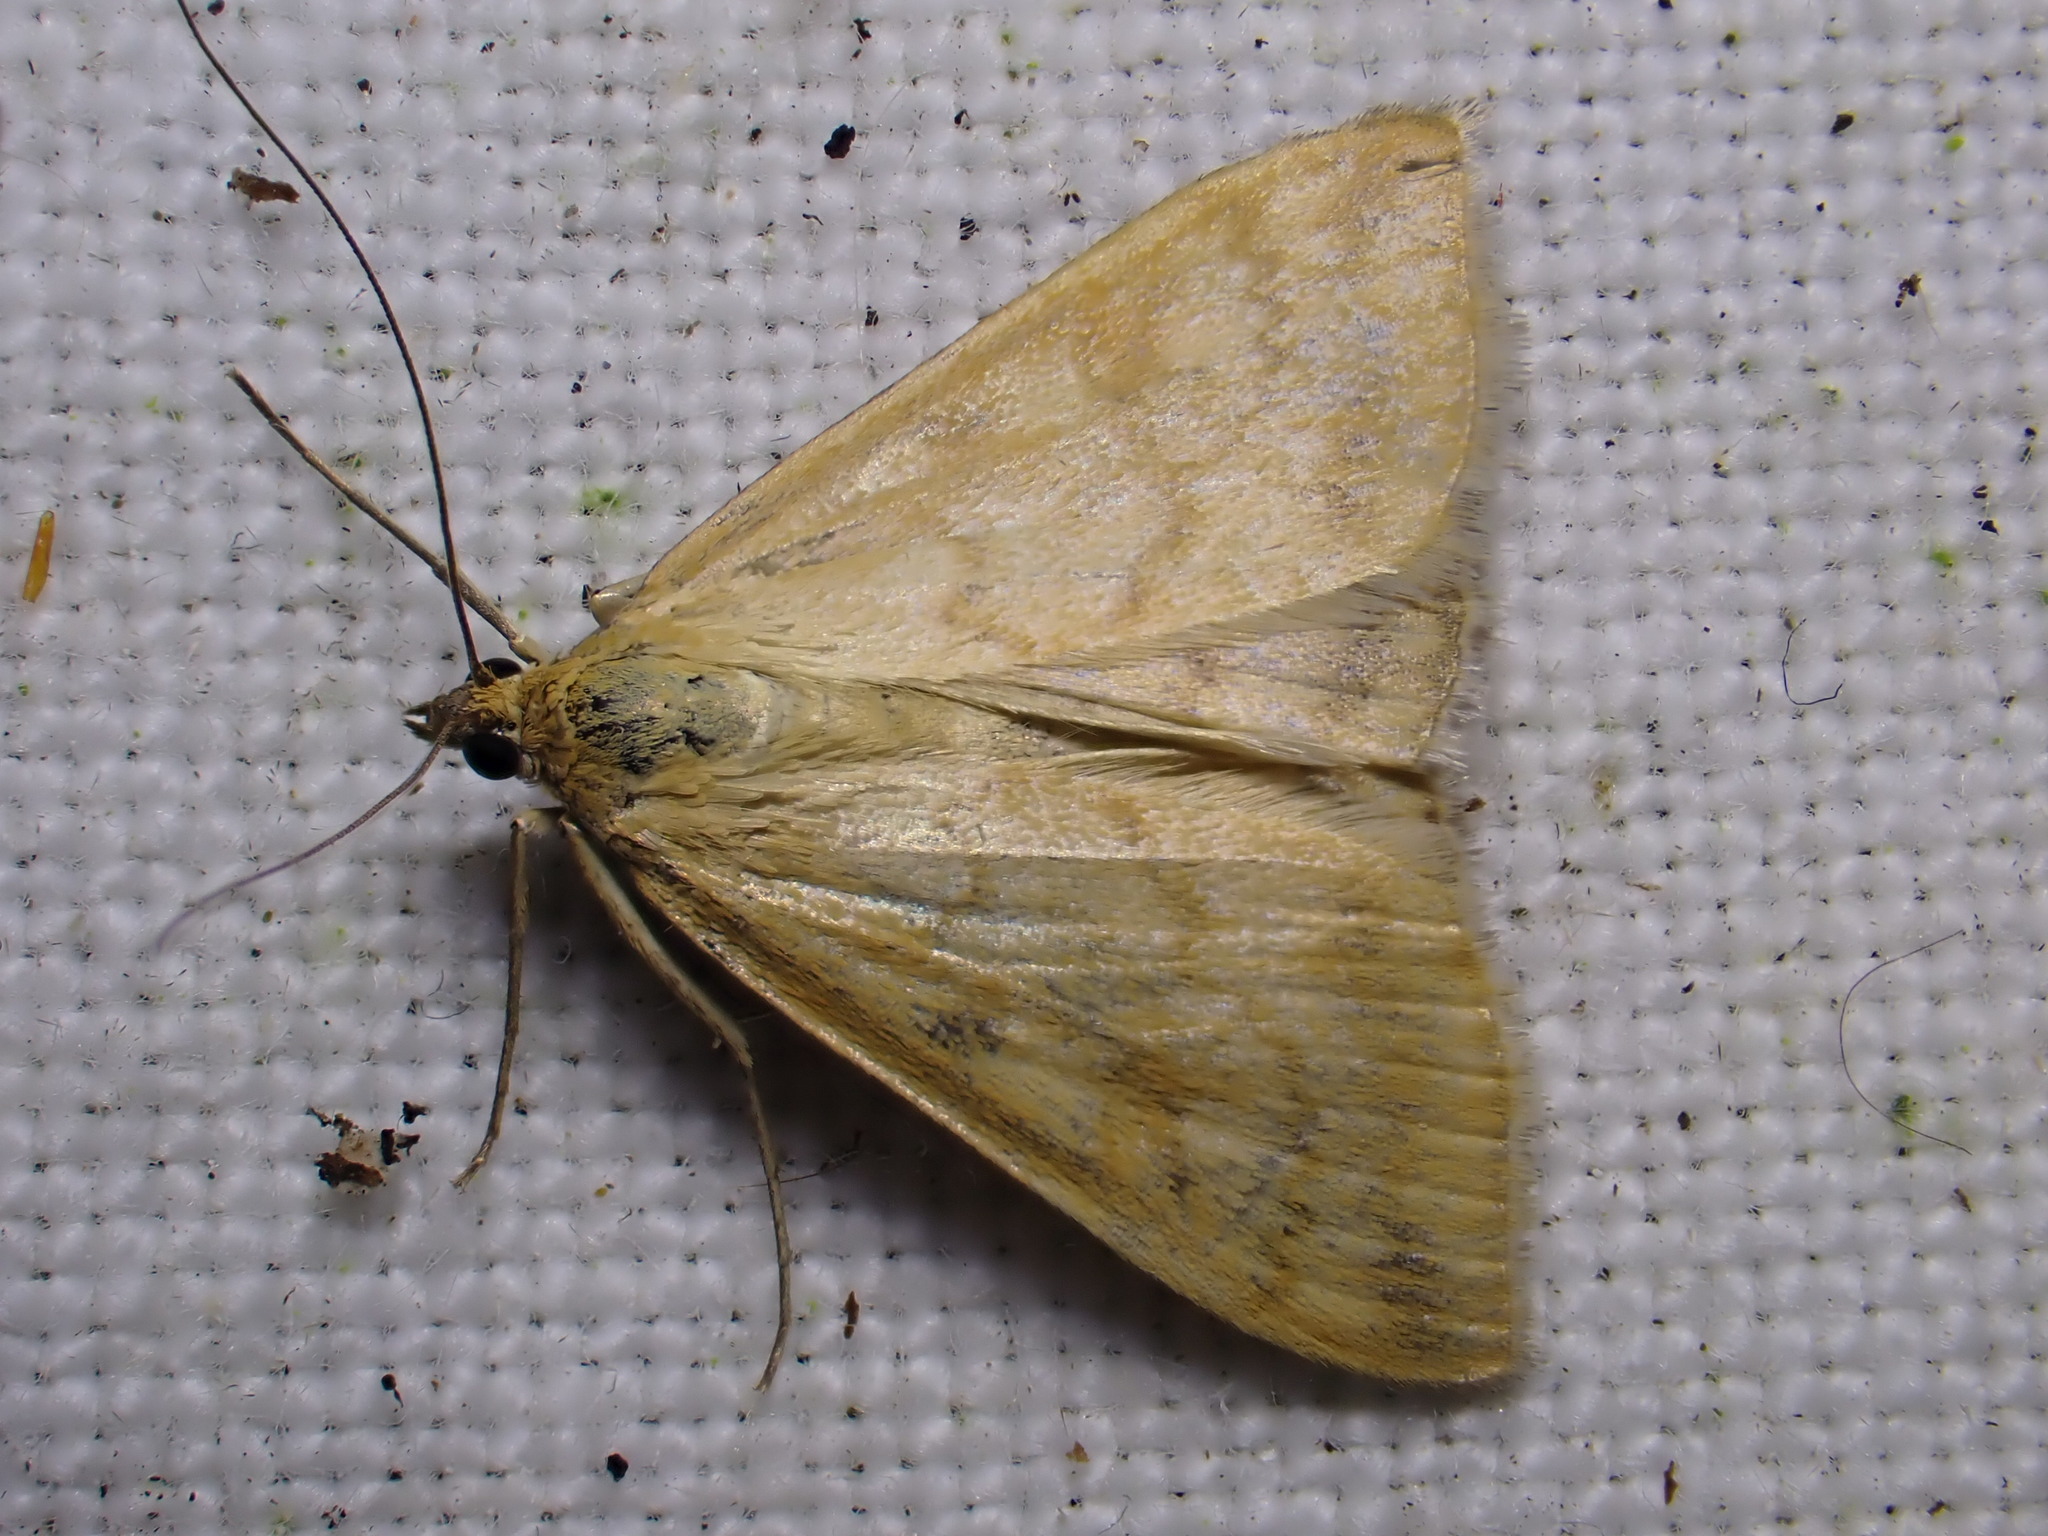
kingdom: Animalia
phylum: Arthropoda
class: Insecta
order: Lepidoptera
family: Crambidae
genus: Sitochroa
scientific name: Sitochroa verticalis
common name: Lesser pearl
